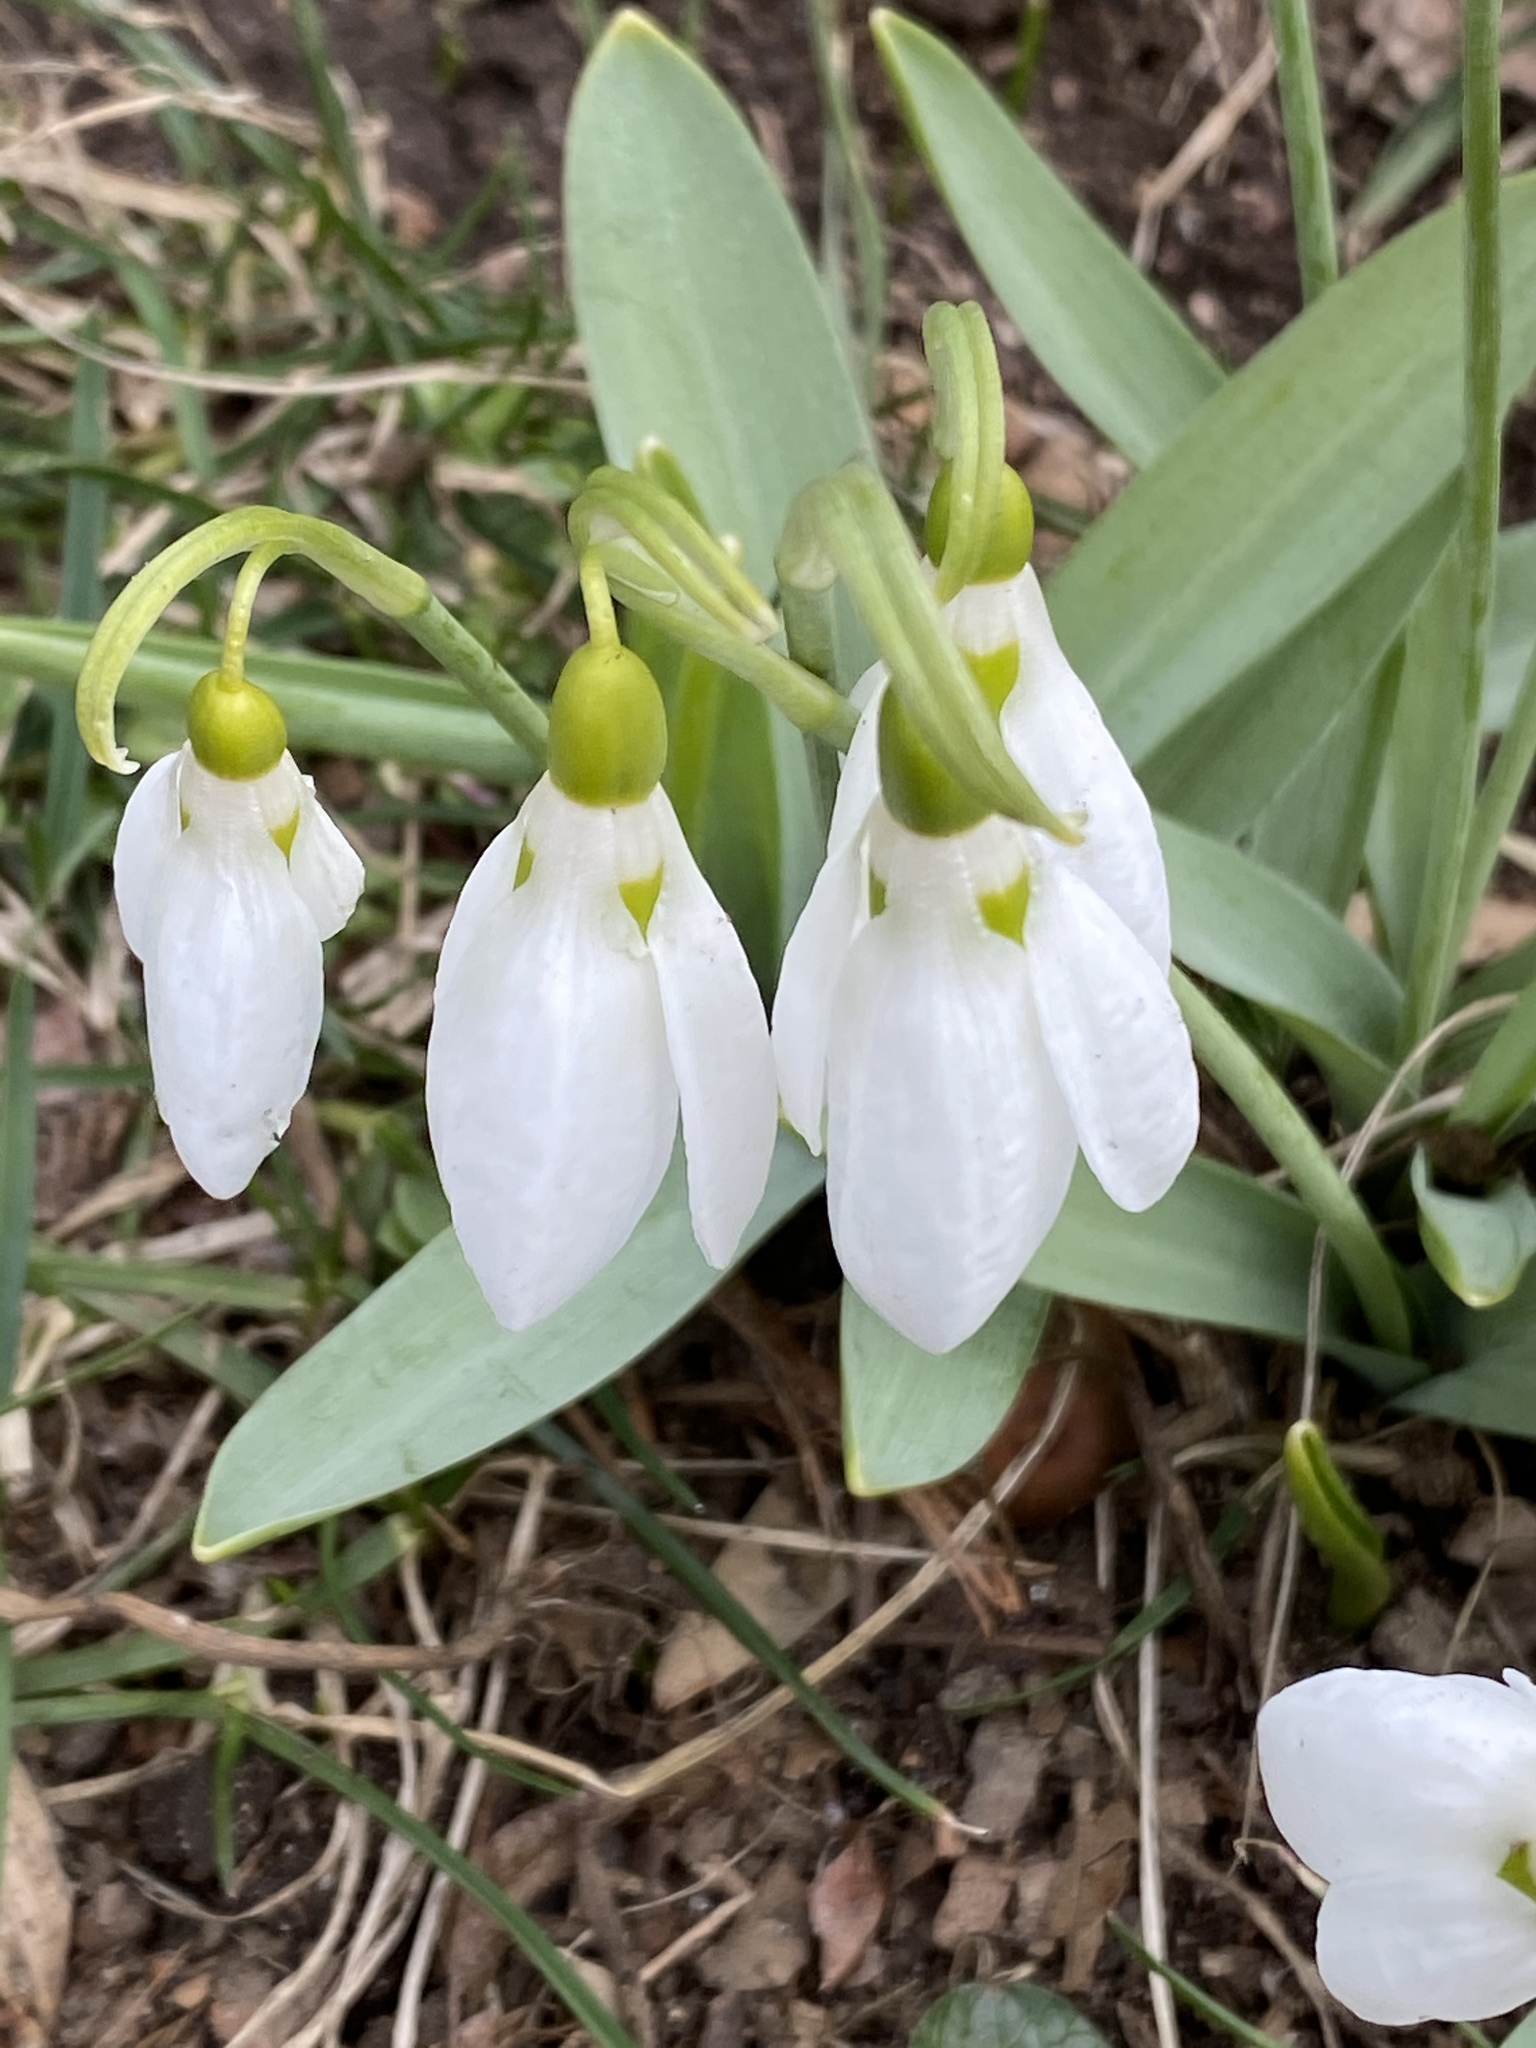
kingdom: Plantae
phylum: Tracheophyta
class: Liliopsida
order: Asparagales
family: Amaryllidaceae
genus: Galanthus
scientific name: Galanthus elwesii
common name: Greater snowdrop
